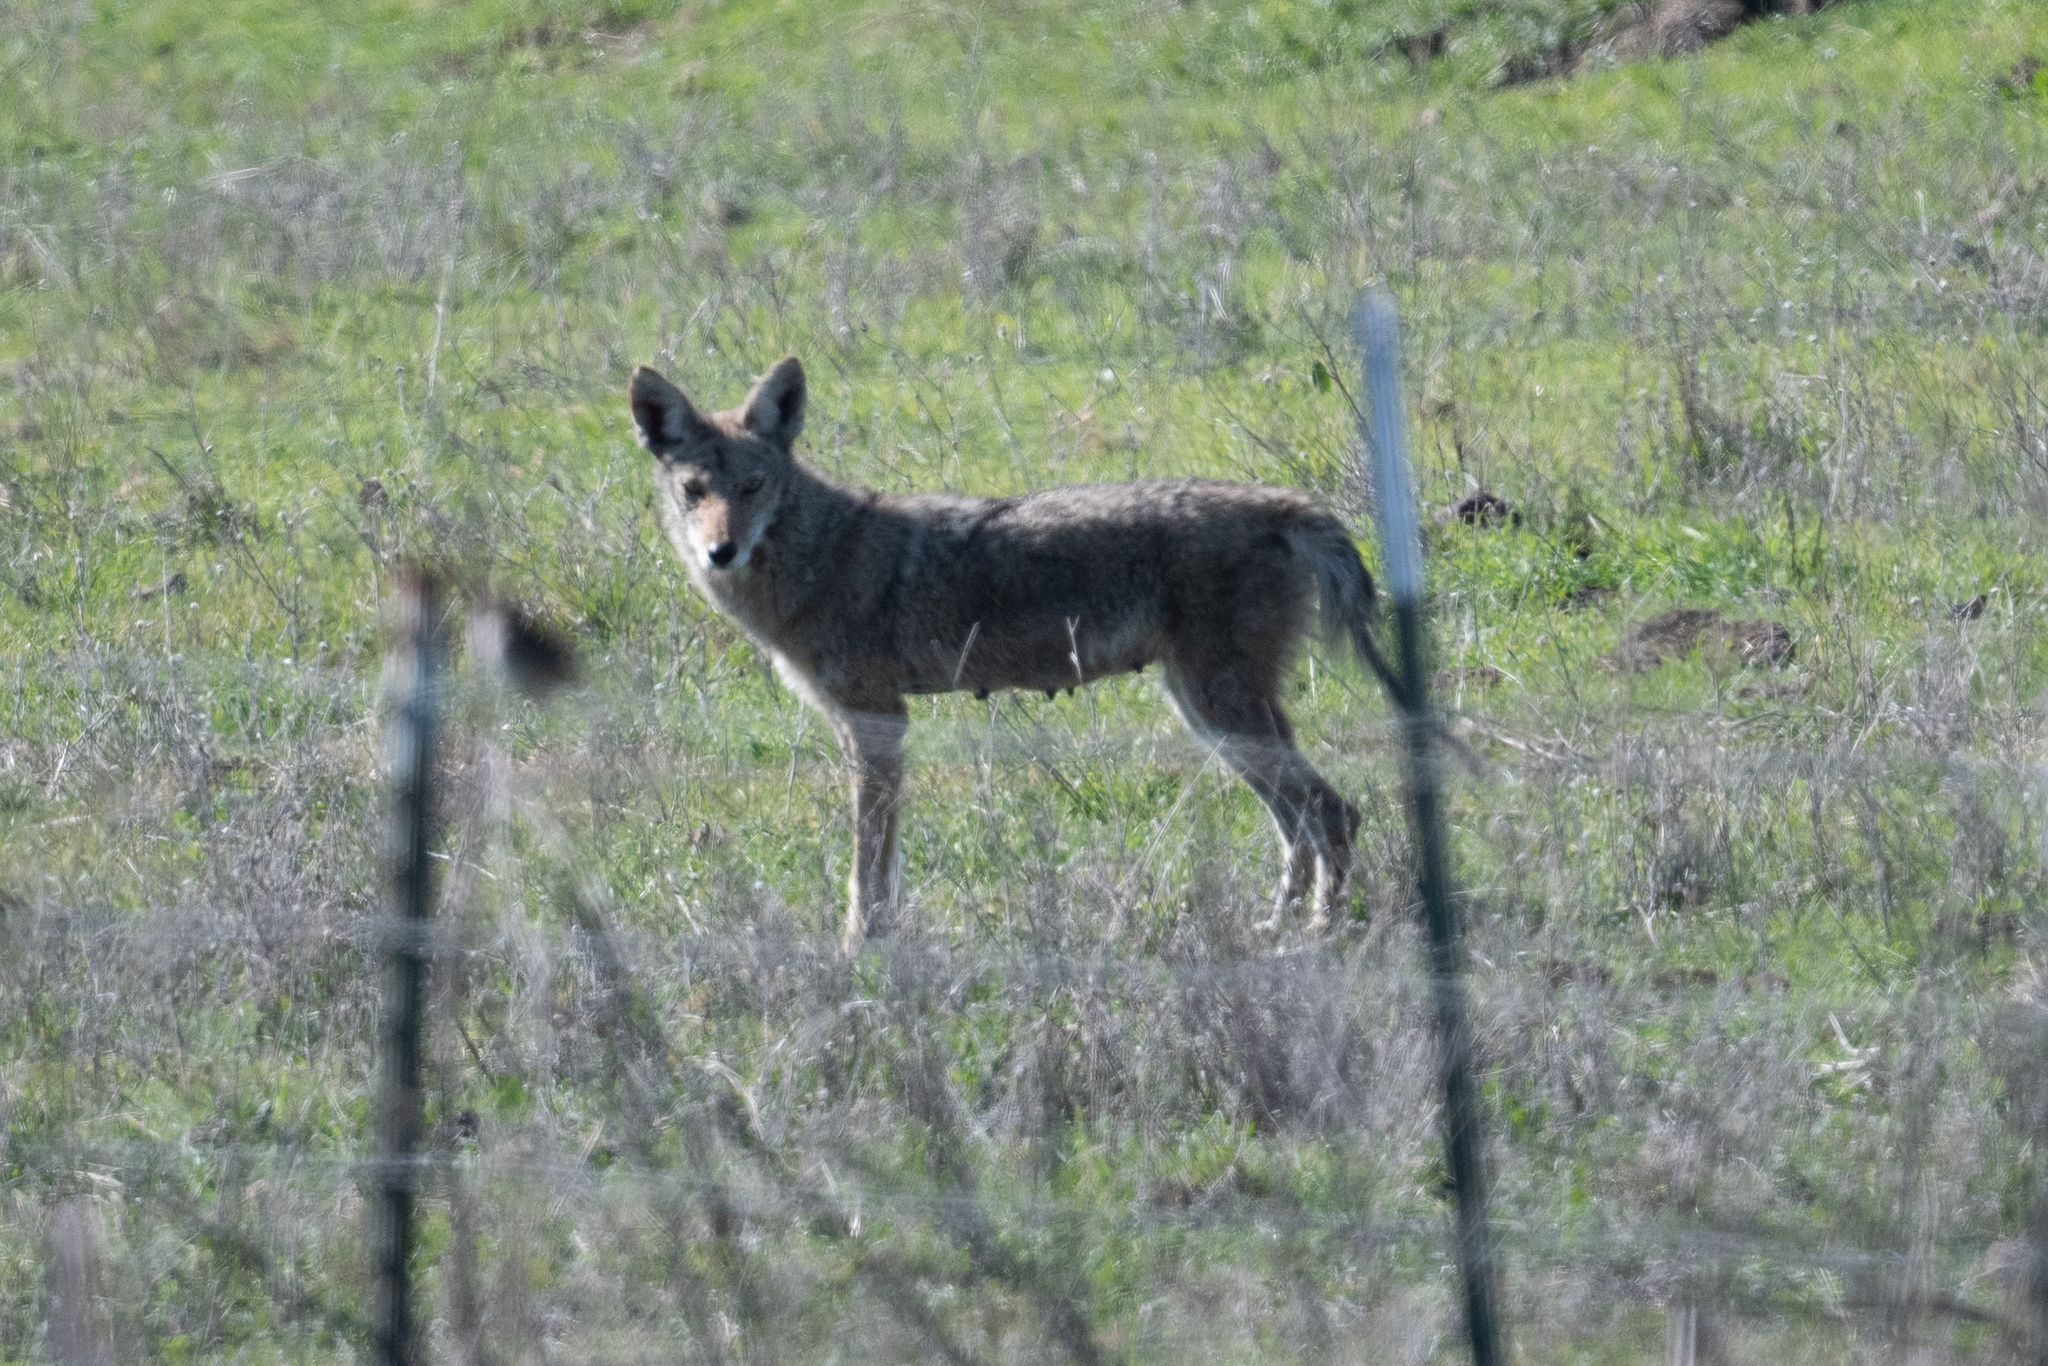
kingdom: Animalia
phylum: Chordata
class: Mammalia
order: Carnivora
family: Canidae
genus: Canis
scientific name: Canis latrans
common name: Coyote
